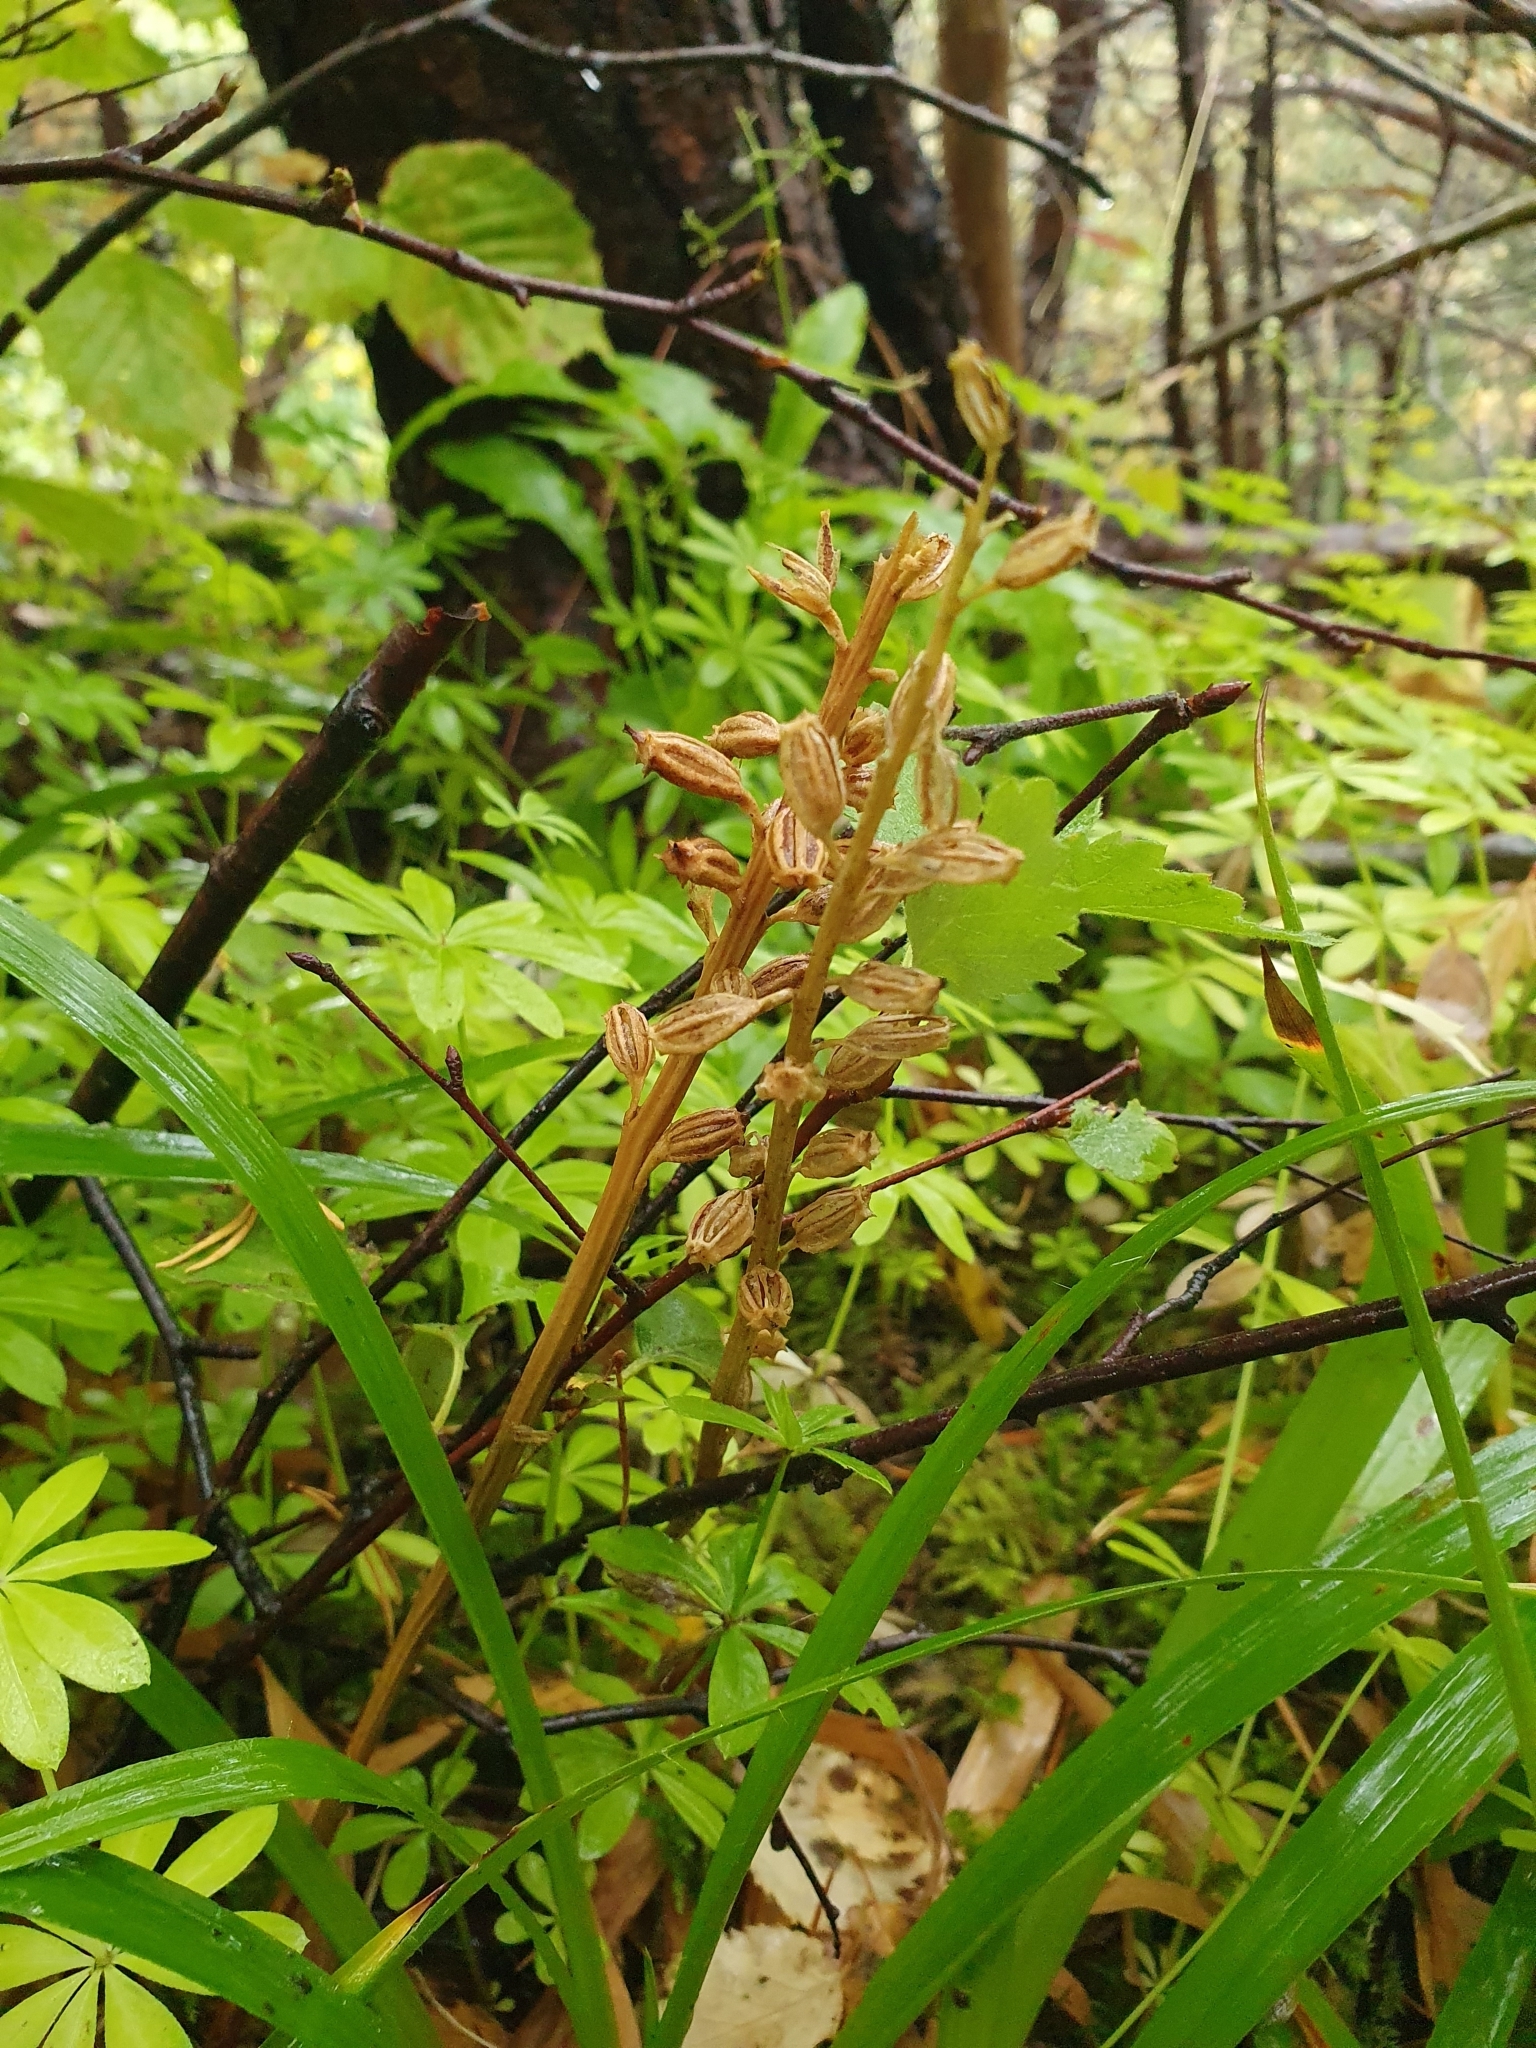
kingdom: Plantae
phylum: Tracheophyta
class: Liliopsida
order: Asparagales
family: Orchidaceae
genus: Neottia
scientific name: Neottia nidus-avis
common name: Bird's-nest orchid
